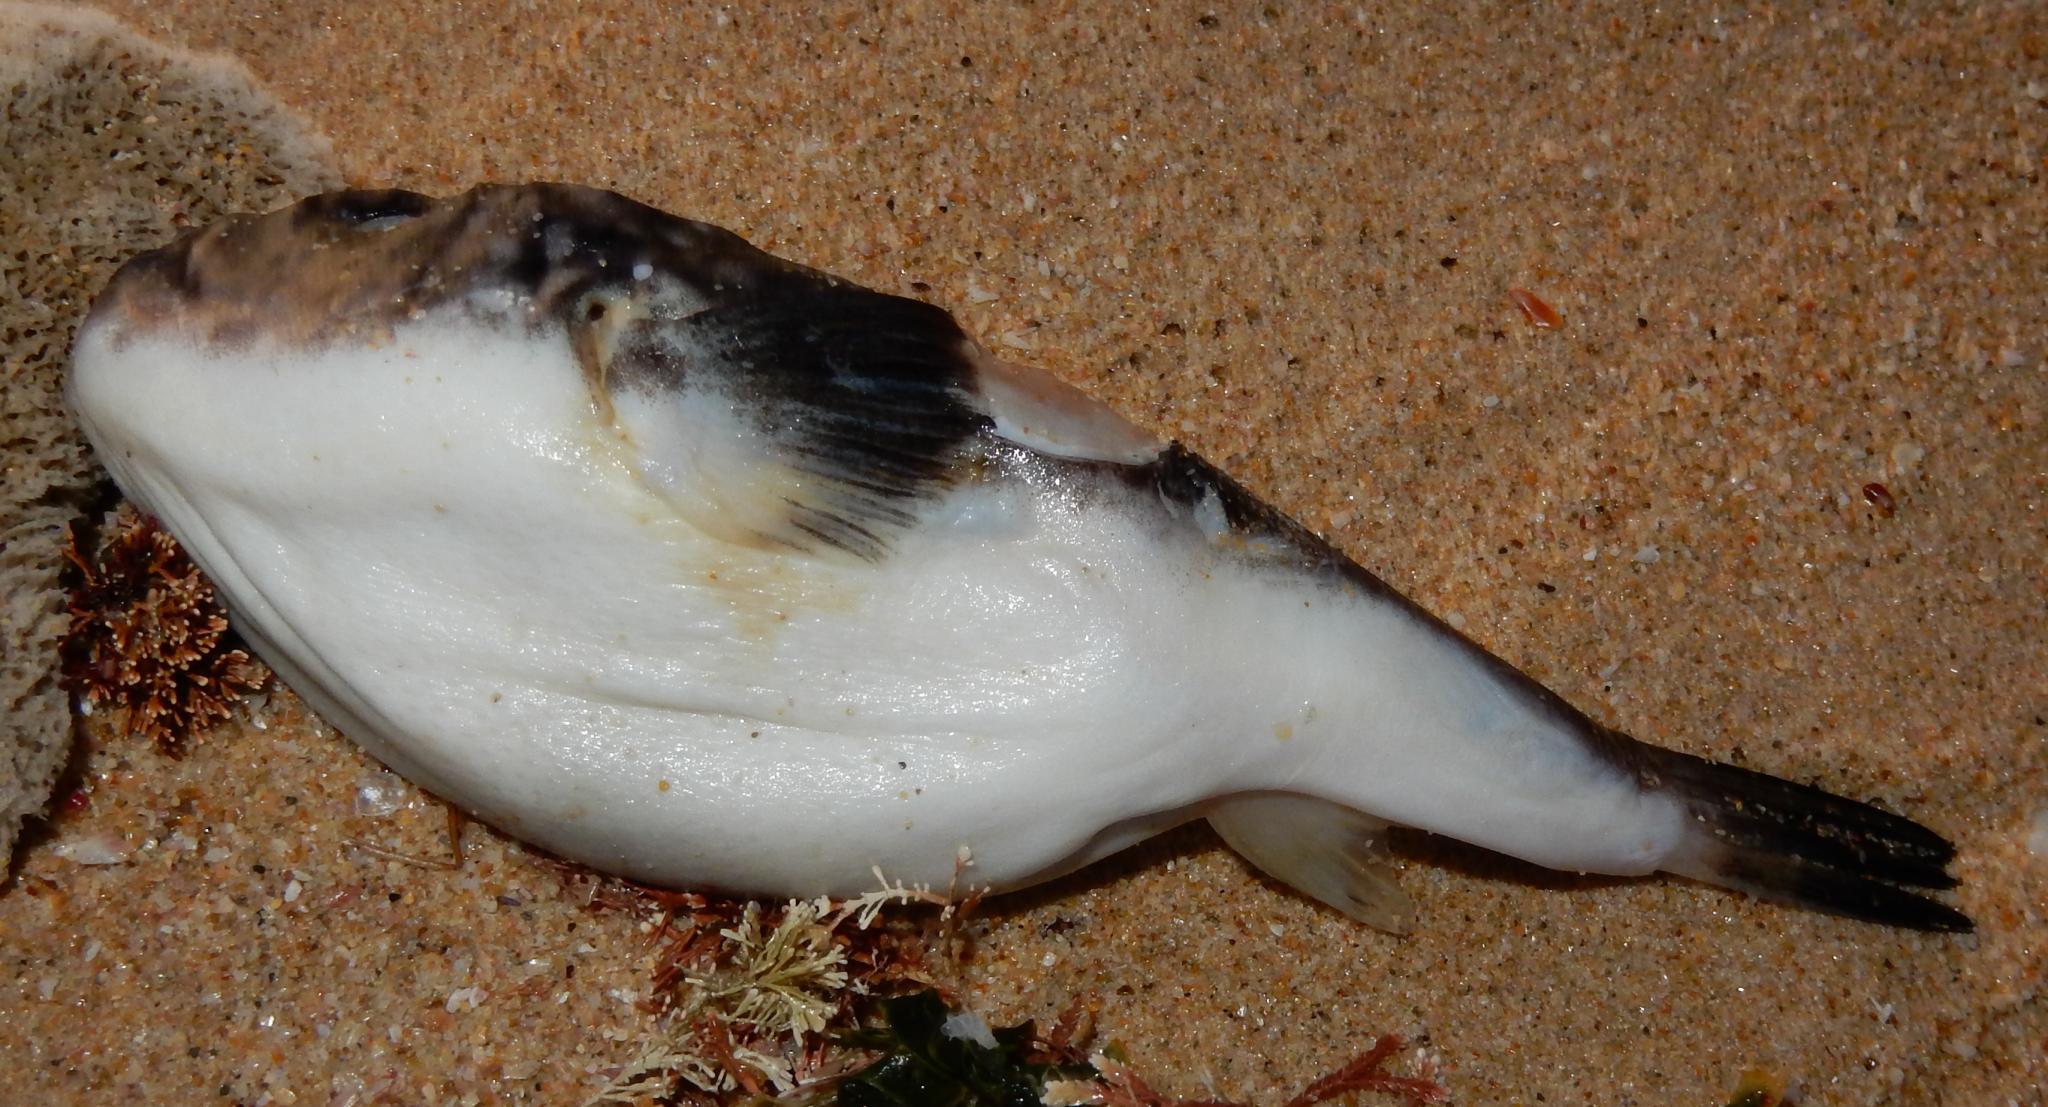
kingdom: Animalia
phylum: Chordata
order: Tetraodontiformes
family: Tetraodontidae
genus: Amblyrhynchote
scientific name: Amblyrhynchote honckenii
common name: Evileye blaasop
